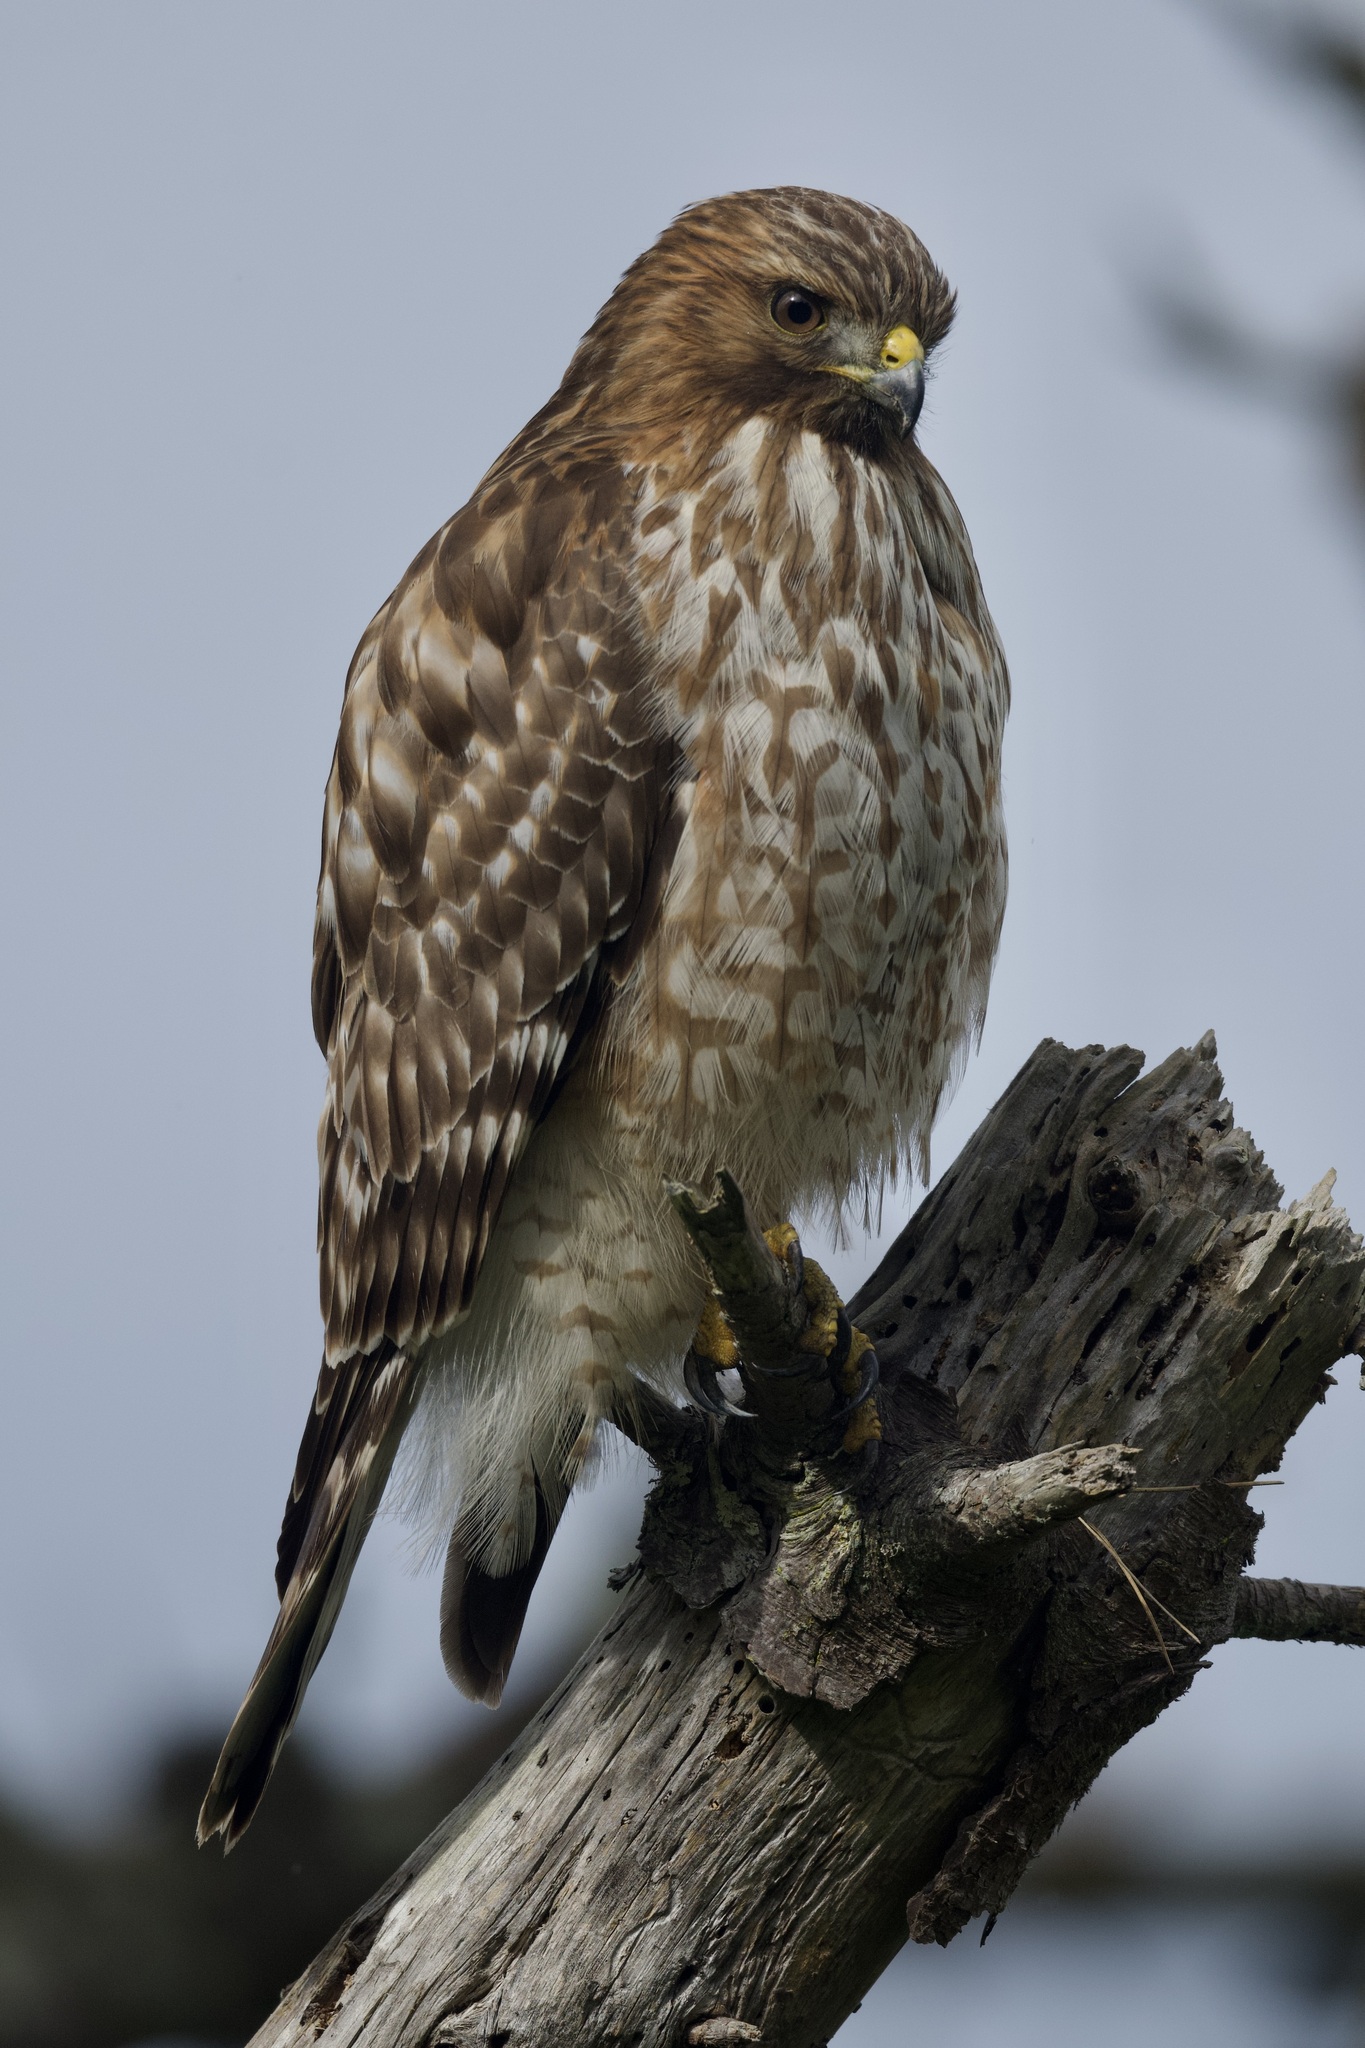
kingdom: Animalia
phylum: Chordata
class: Aves
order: Accipitriformes
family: Accipitridae
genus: Buteo
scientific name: Buteo lineatus
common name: Red-shouldered hawk
